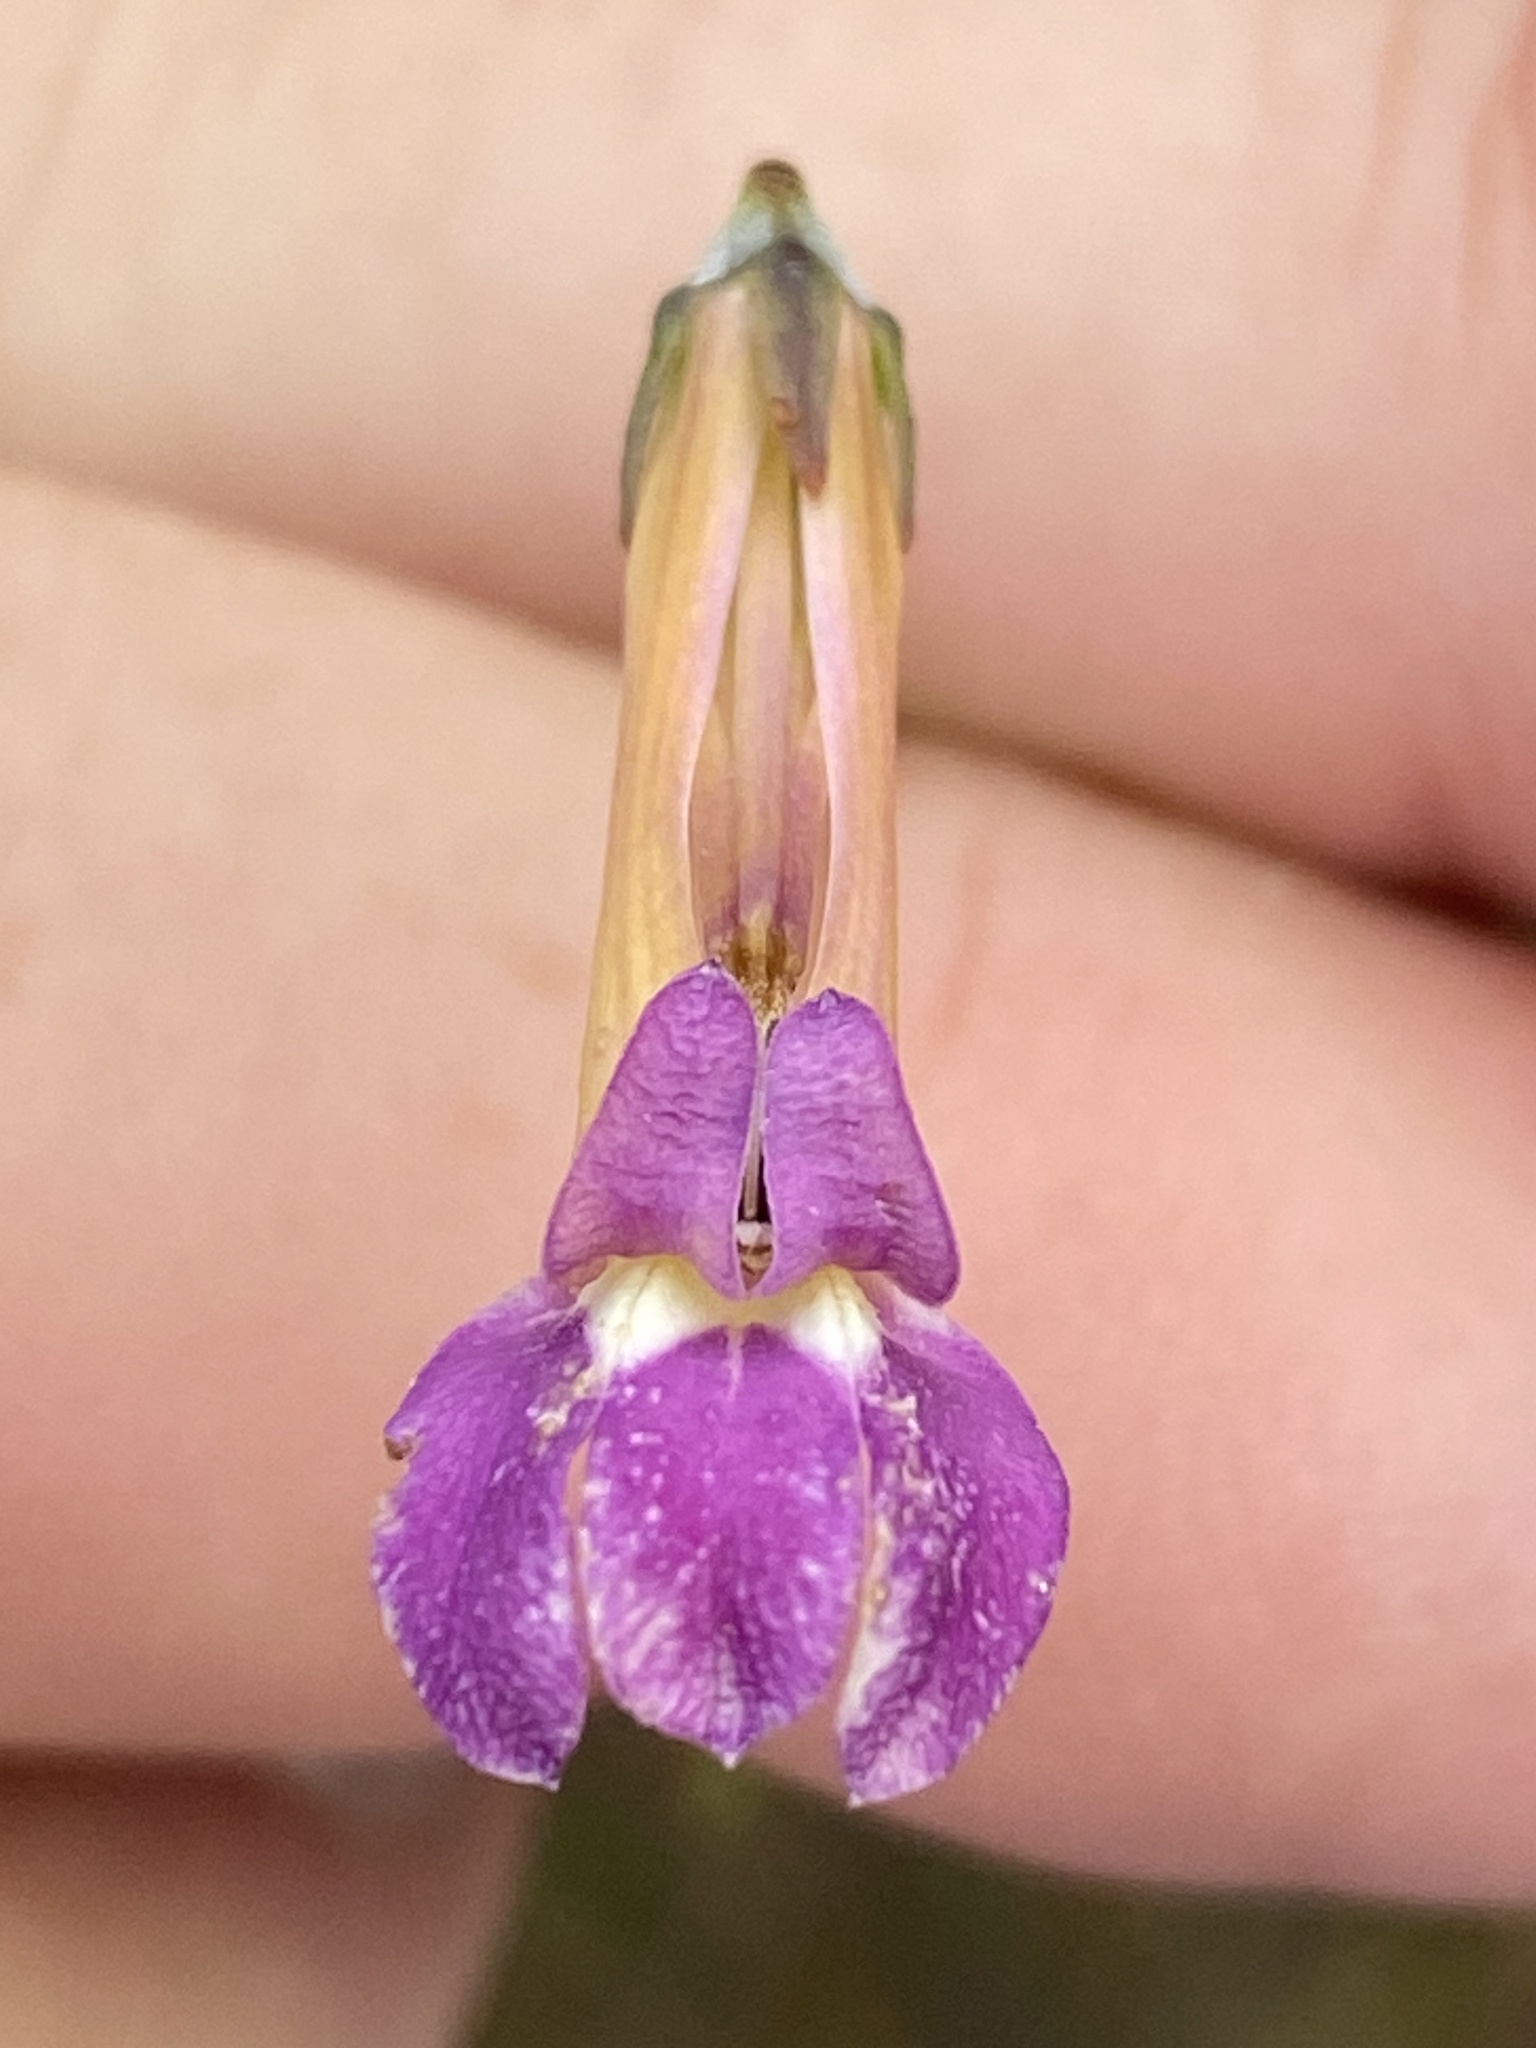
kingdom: Plantae
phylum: Tracheophyta
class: Magnoliopsida
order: Asterales
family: Campanulaceae
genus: Lobelia
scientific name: Lobelia coronopifolia
